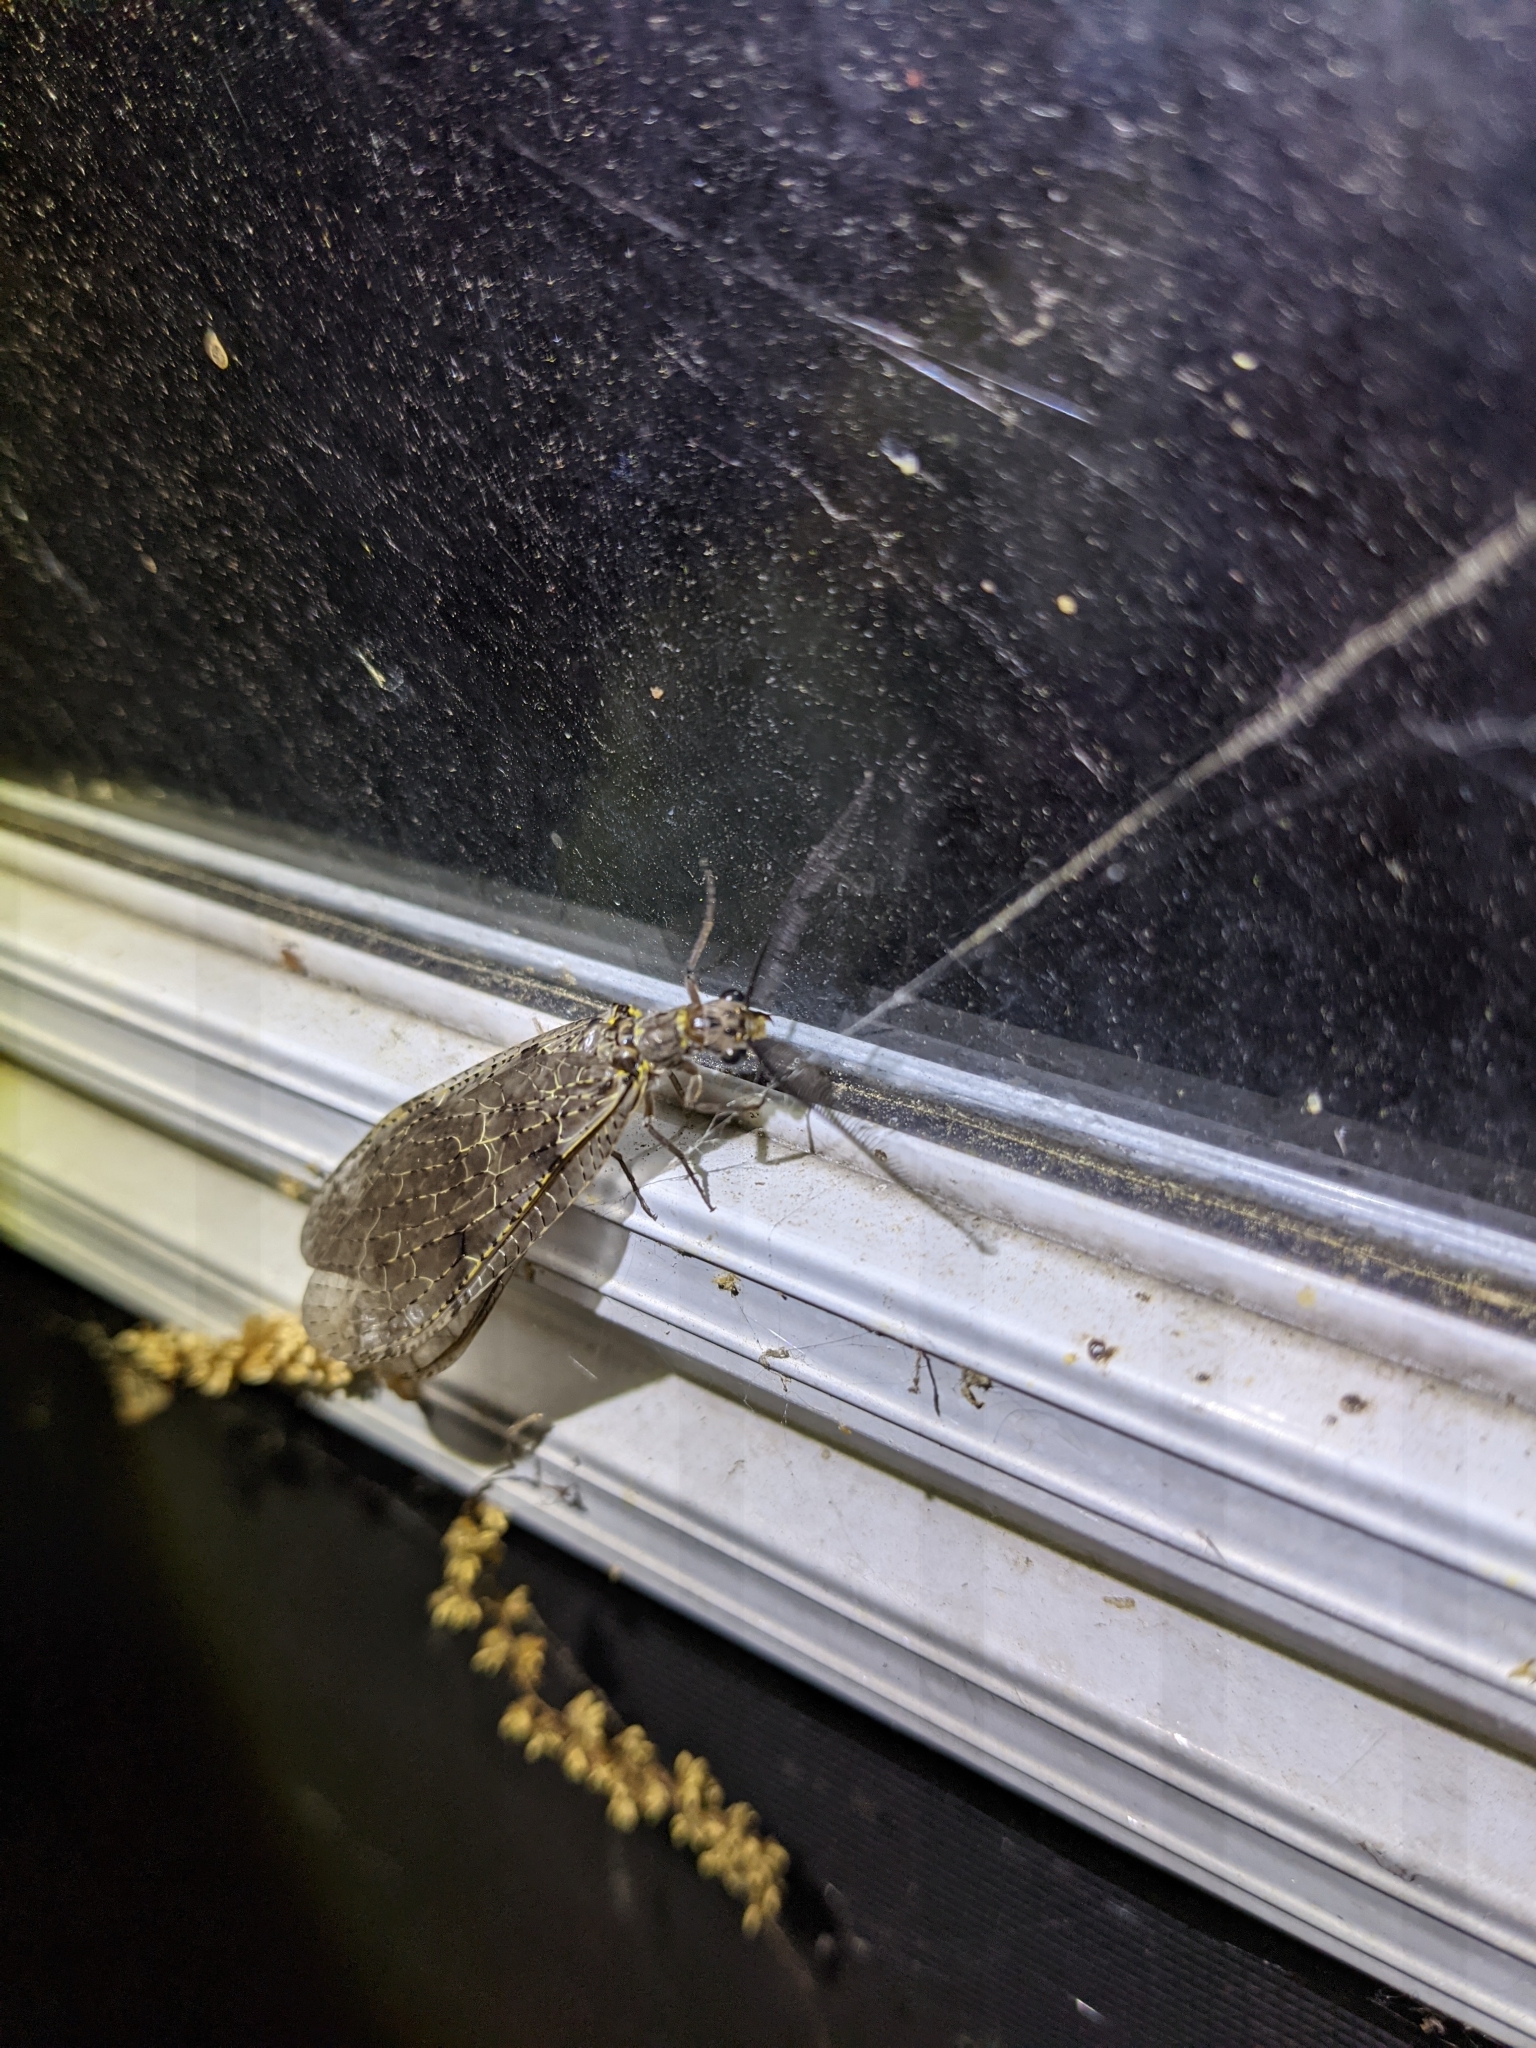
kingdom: Animalia
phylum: Arthropoda
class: Insecta
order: Megaloptera
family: Corydalidae
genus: Chauliodes
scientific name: Chauliodes rastricornis
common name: Spring fishfly
